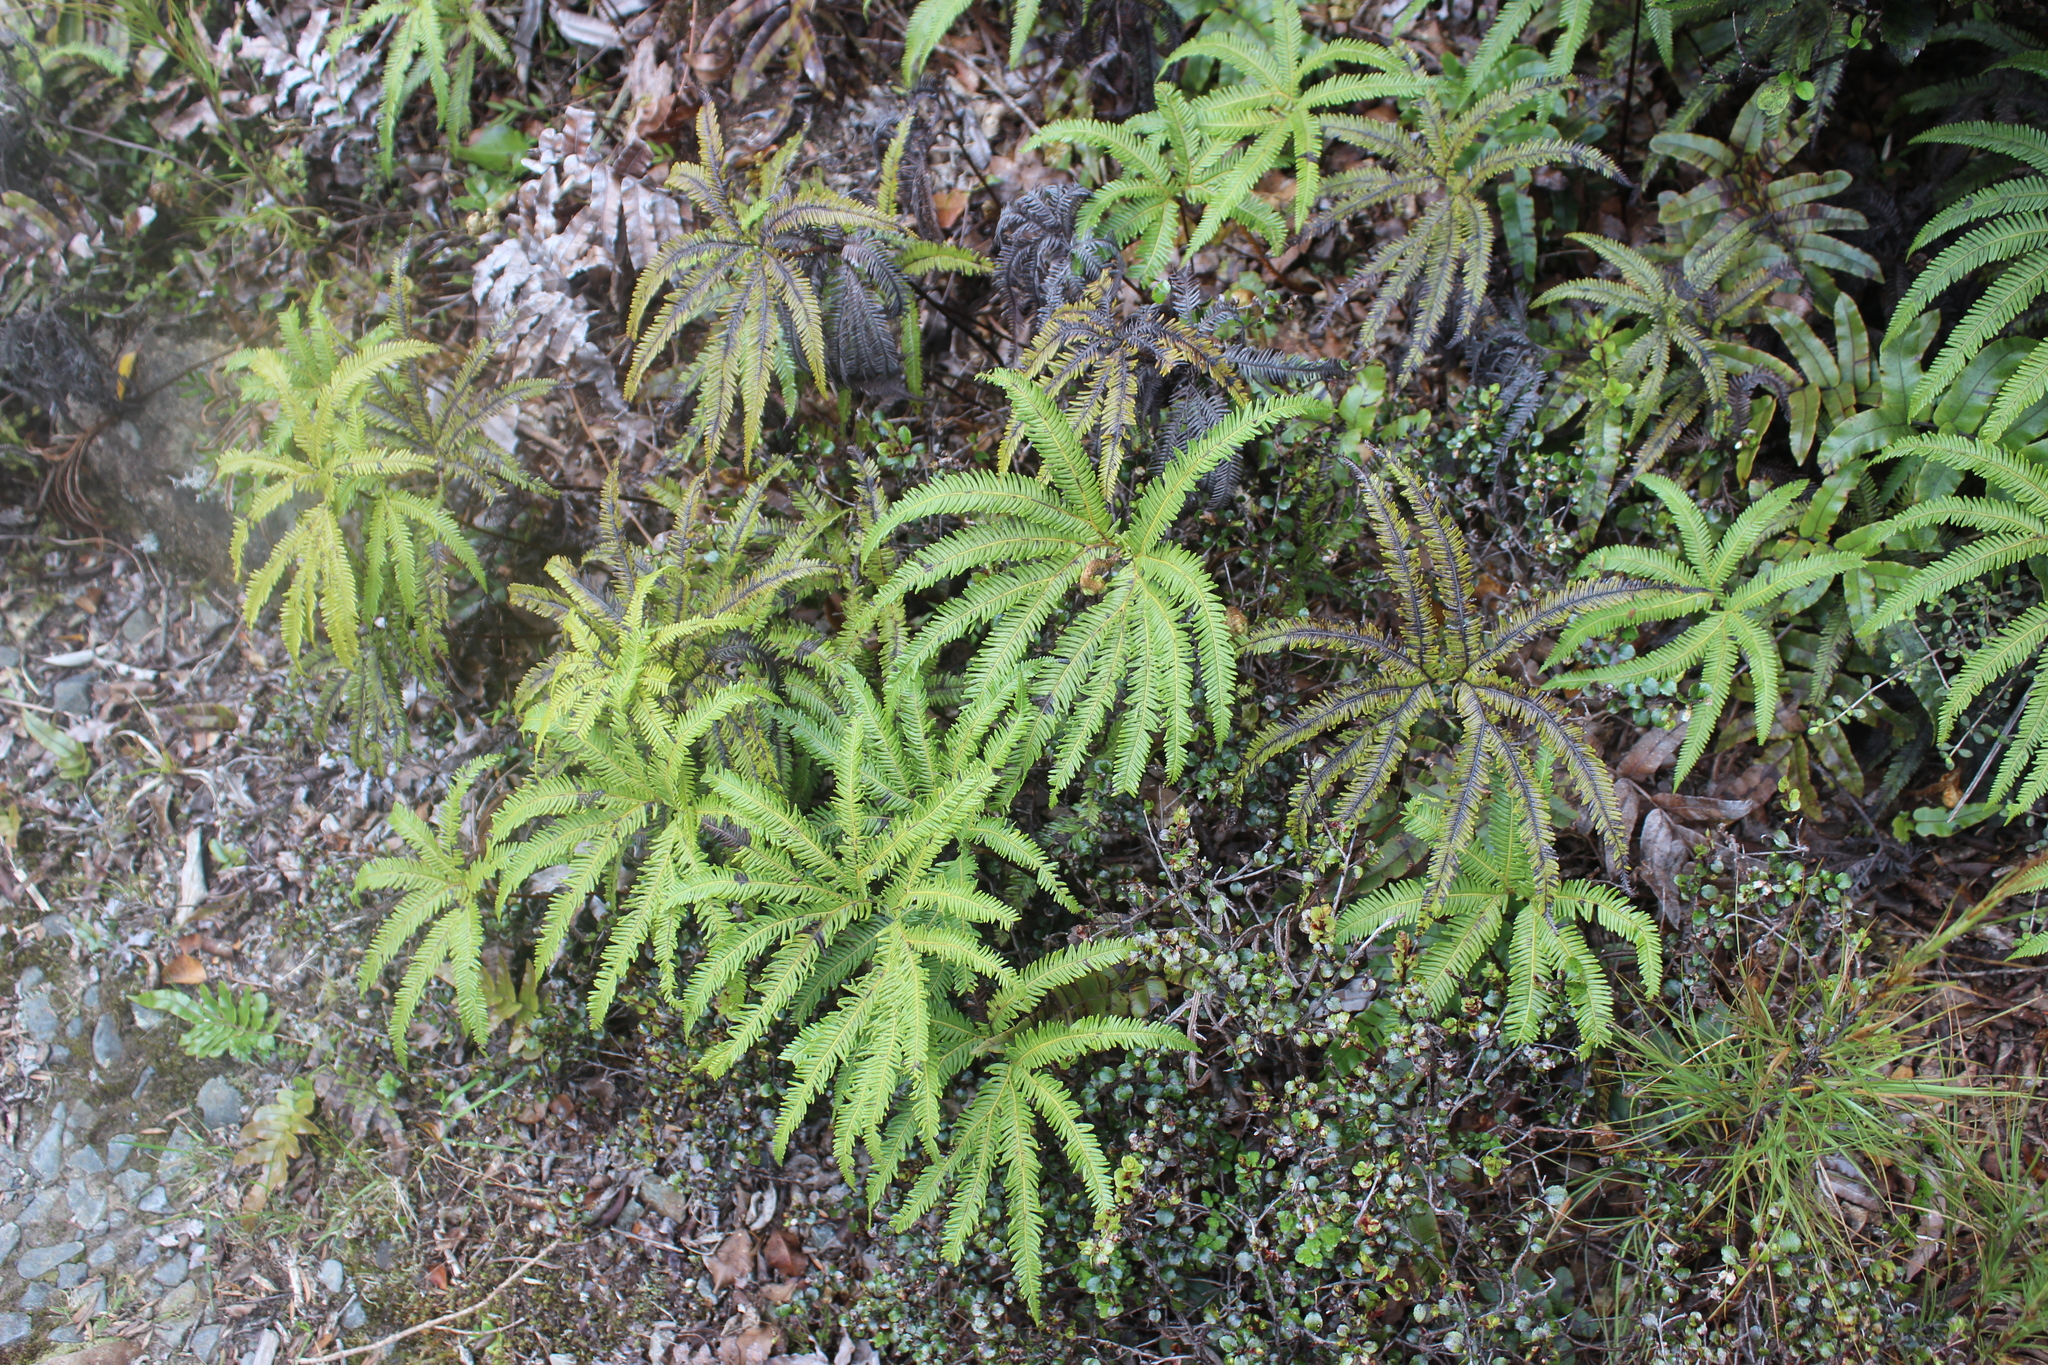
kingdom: Plantae
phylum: Tracheophyta
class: Polypodiopsida
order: Gleicheniales
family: Gleicheniaceae
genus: Sticherus
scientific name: Sticherus cunninghamii
